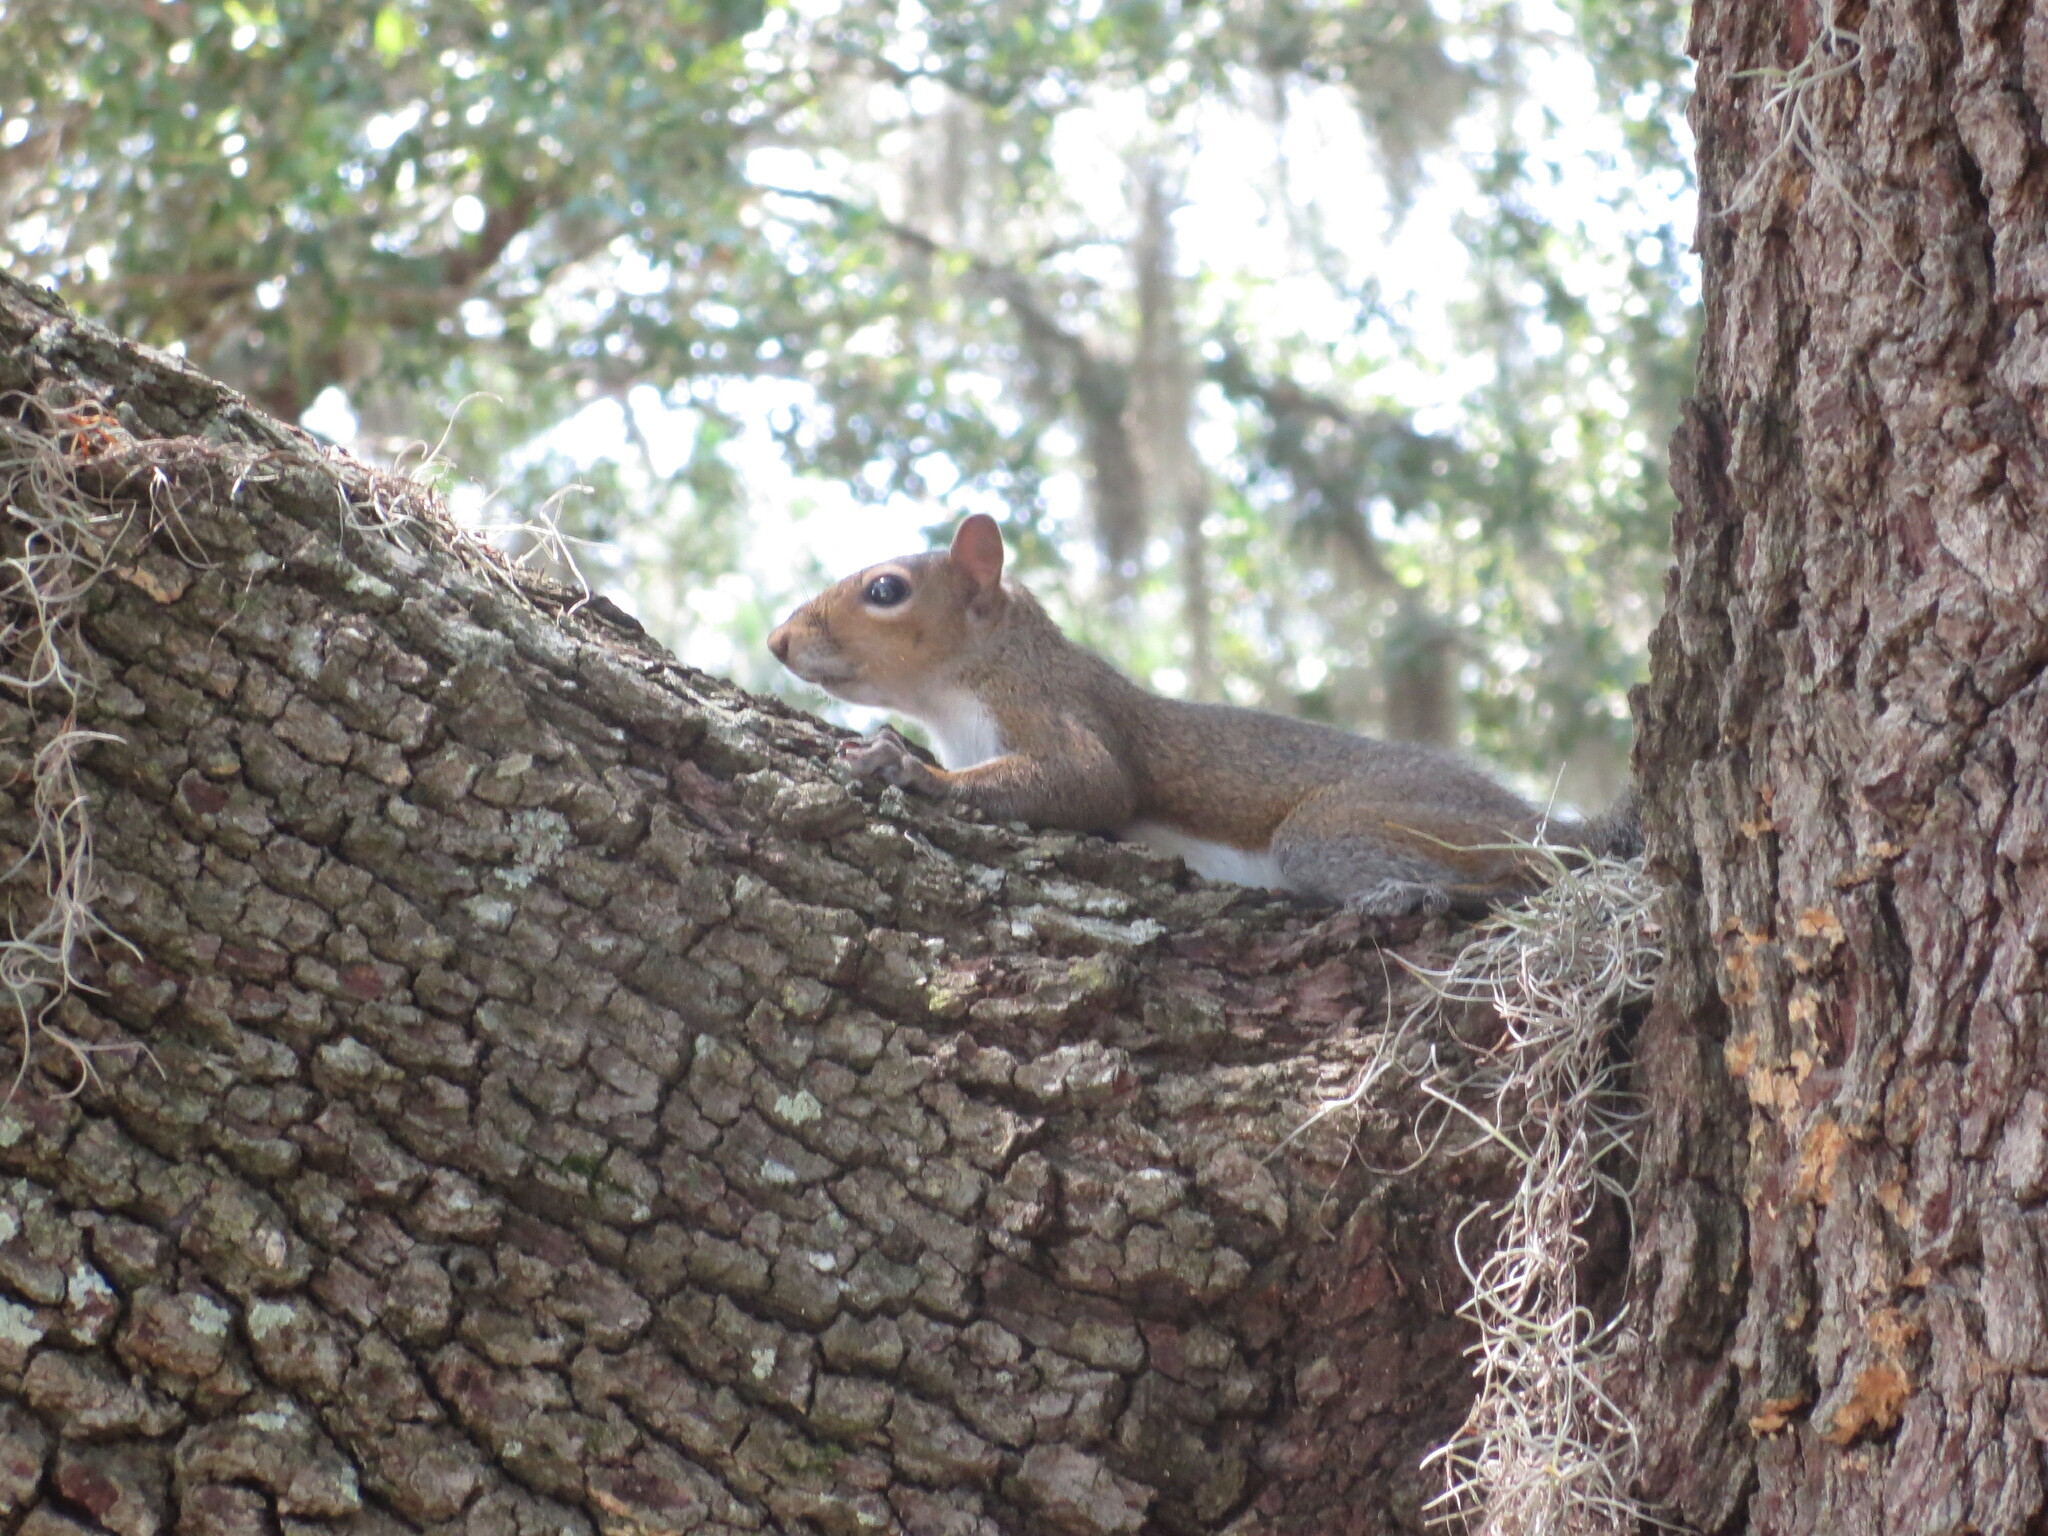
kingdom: Animalia
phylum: Chordata
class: Mammalia
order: Rodentia
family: Sciuridae
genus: Sciurus
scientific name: Sciurus carolinensis
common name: Eastern gray squirrel
